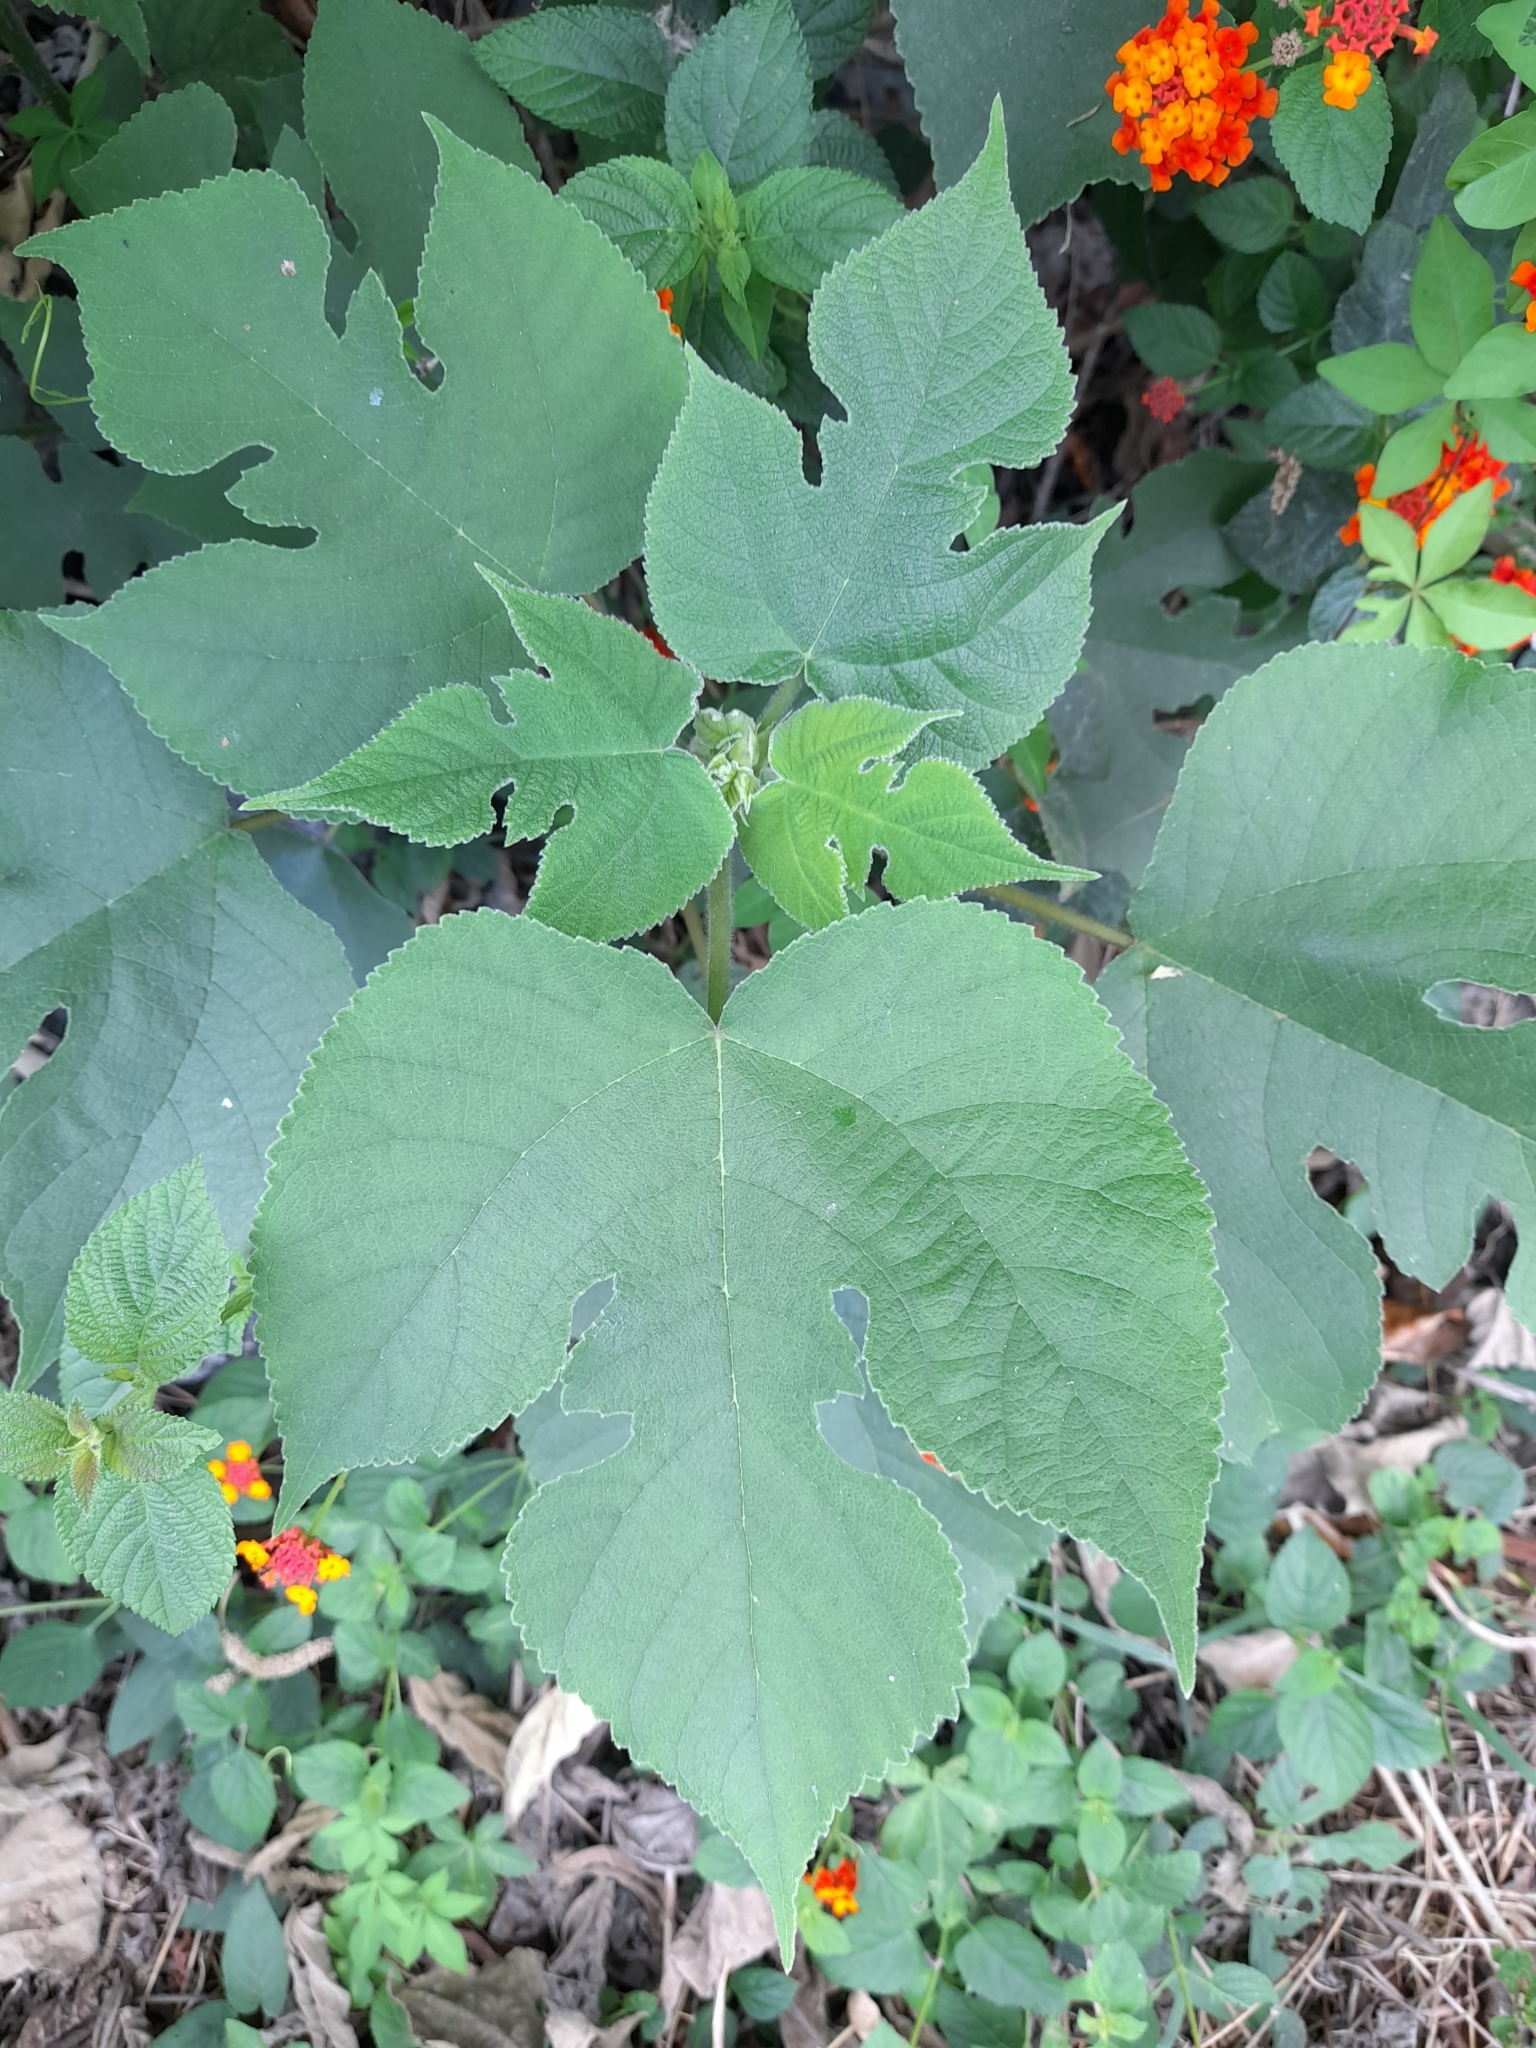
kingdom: Plantae
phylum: Tracheophyta
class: Magnoliopsida
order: Rosales
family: Moraceae
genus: Broussonetia
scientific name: Broussonetia papyrifera
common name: Paper mulberry
